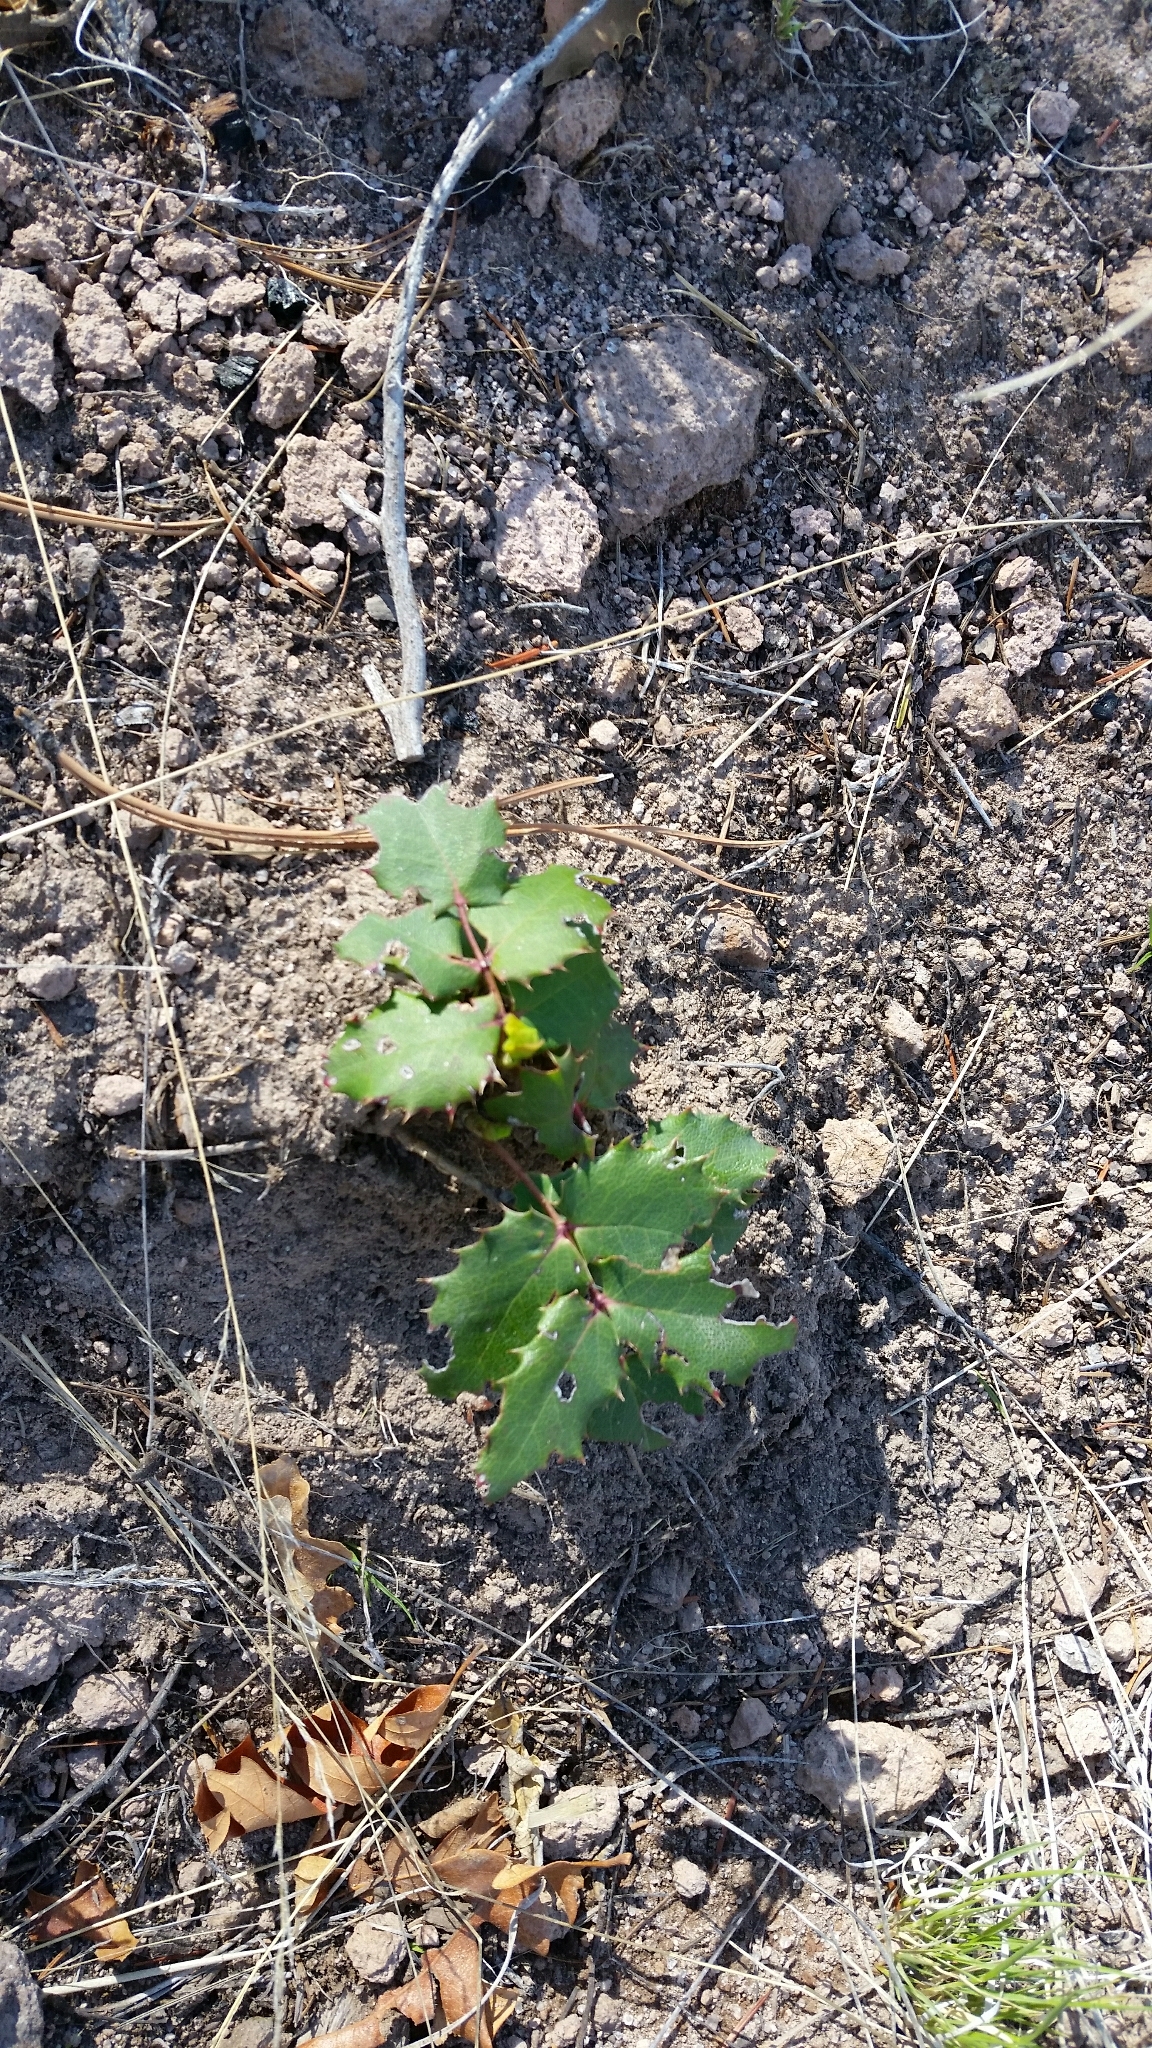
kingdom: Plantae
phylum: Tracheophyta
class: Magnoliopsida
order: Ranunculales
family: Berberidaceae
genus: Mahonia
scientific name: Mahonia repens
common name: Creeping oregon-grape
